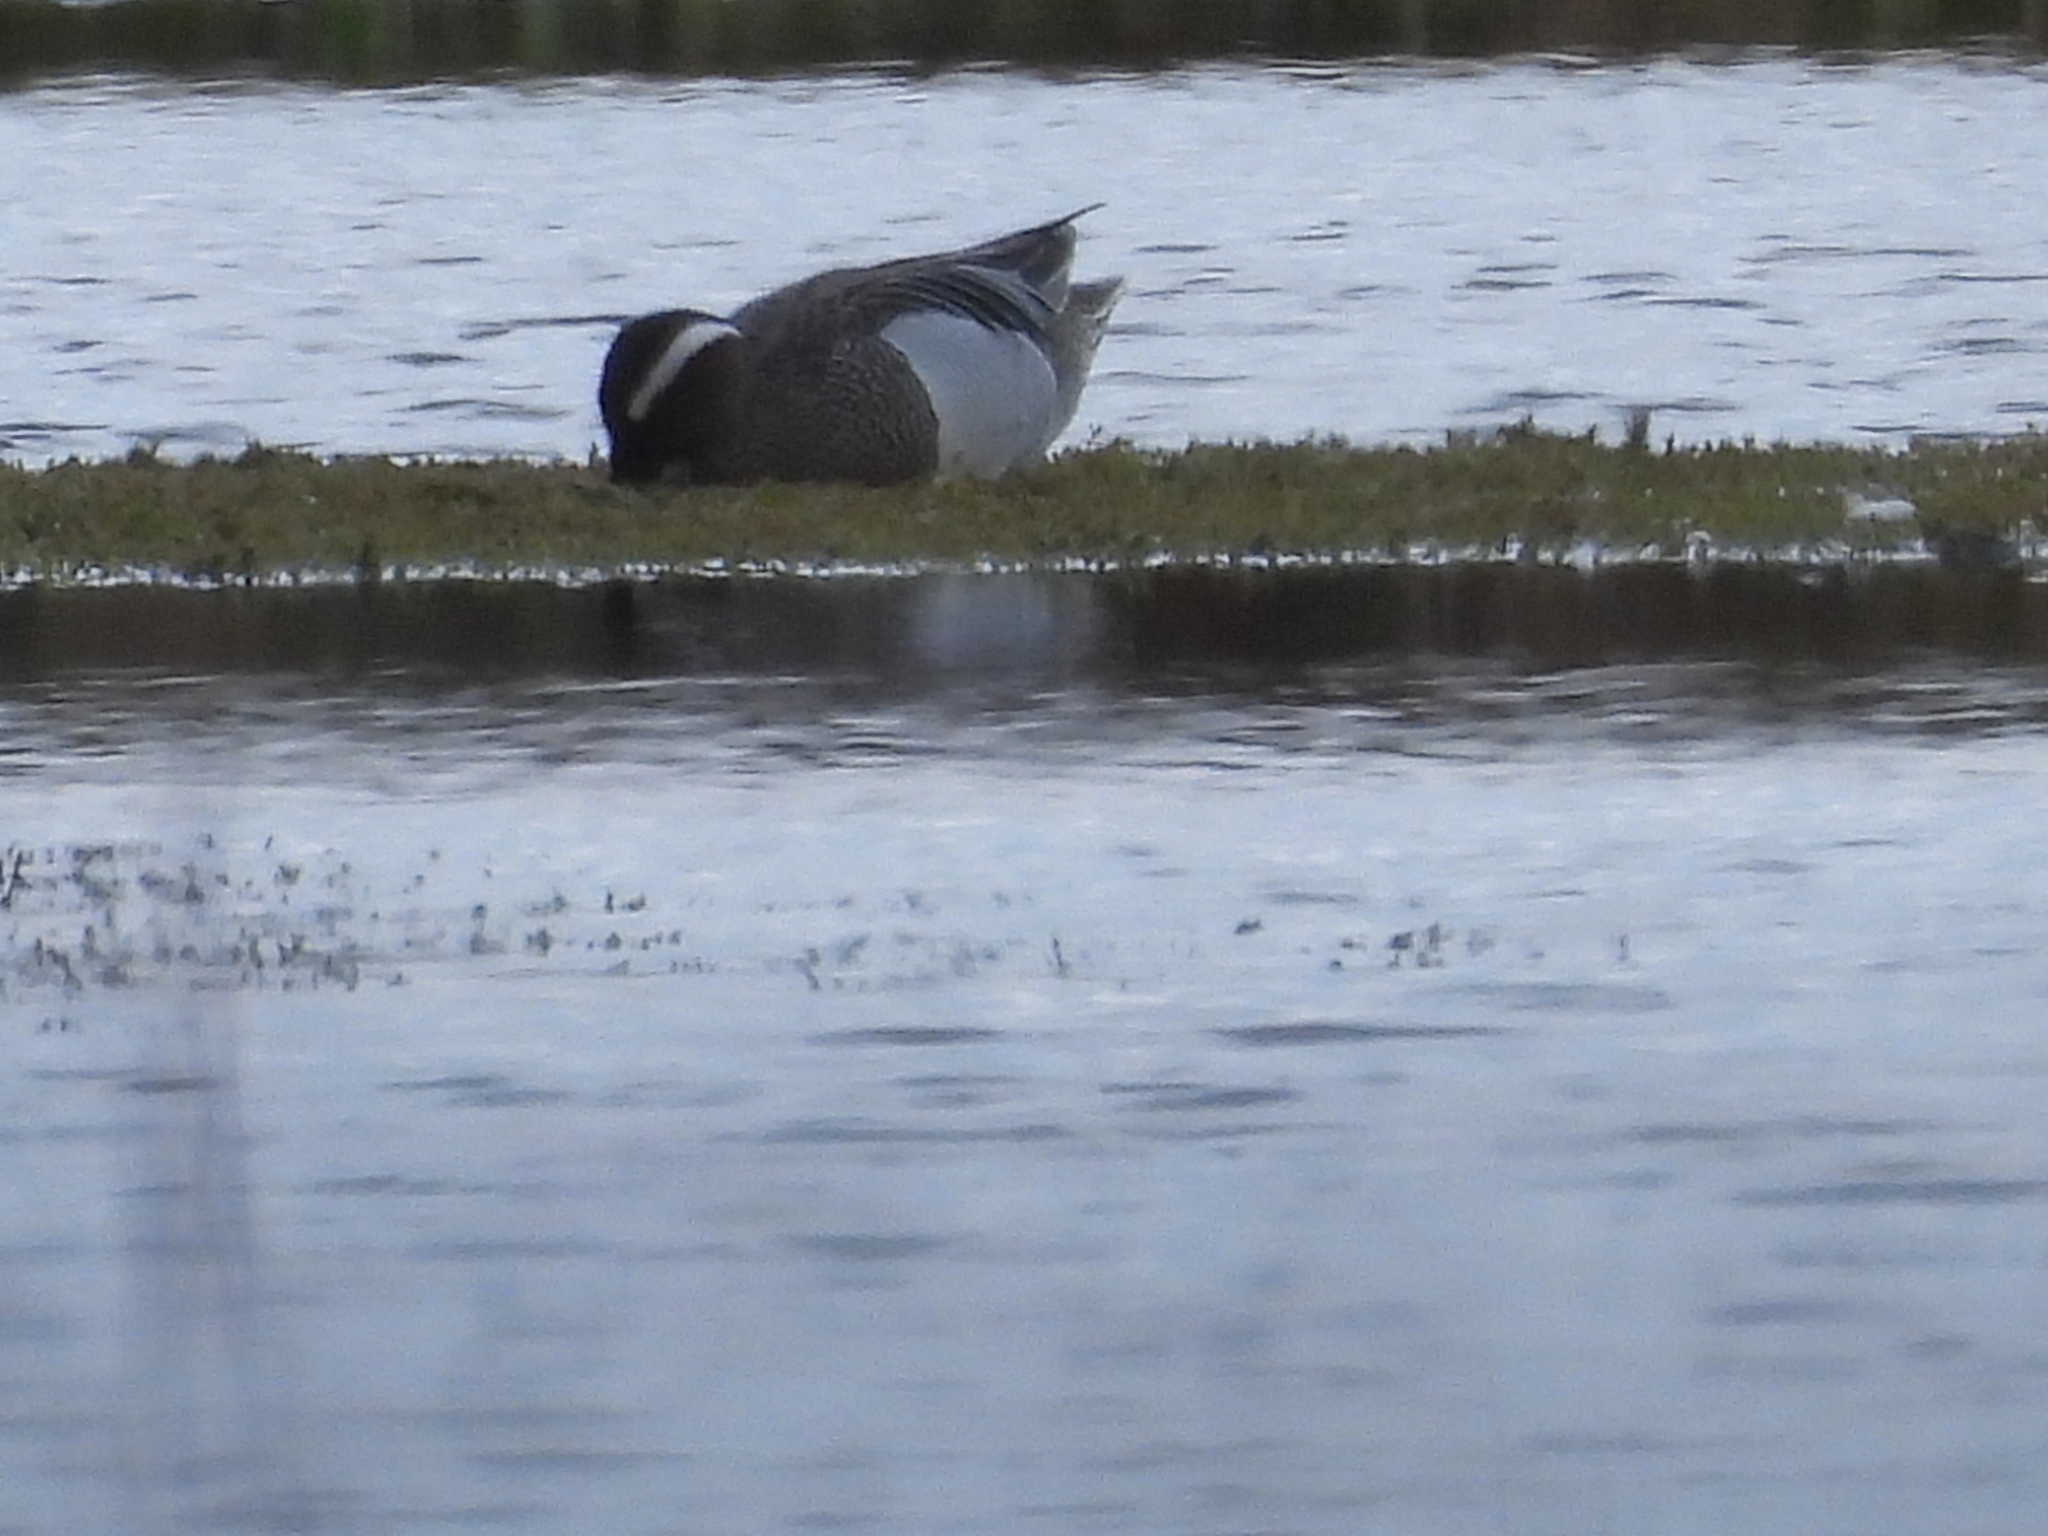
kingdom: Animalia
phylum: Chordata
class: Aves
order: Anseriformes
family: Anatidae
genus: Spatula
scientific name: Spatula querquedula
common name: Garganey
